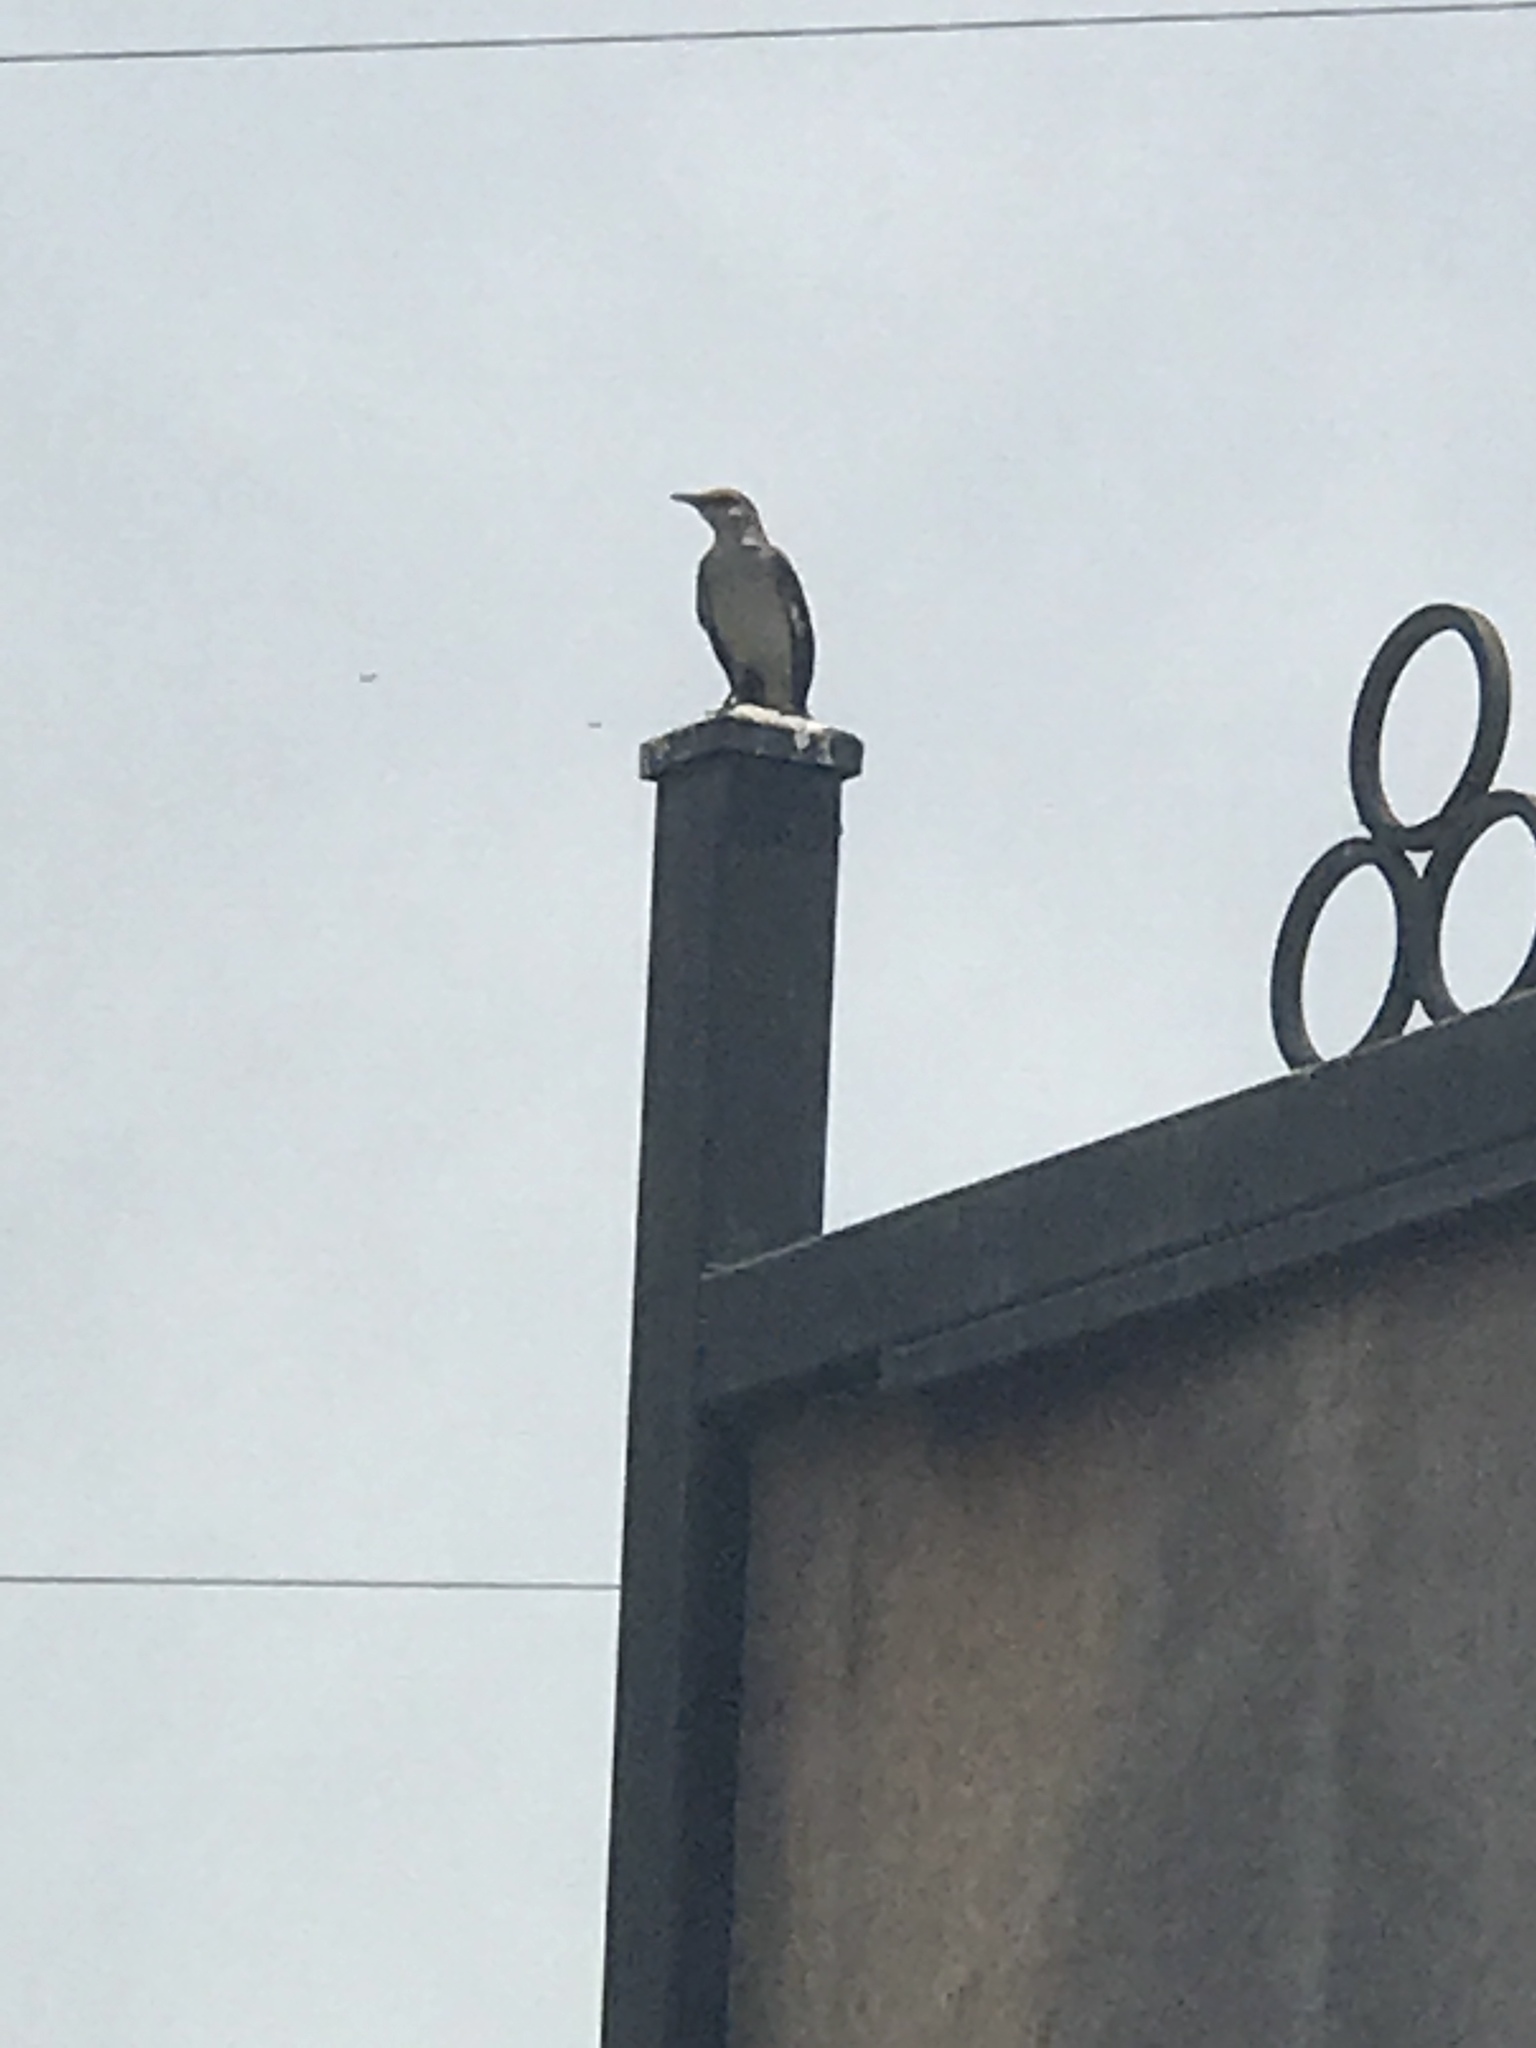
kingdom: Animalia
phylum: Chordata
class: Aves
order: Passeriformes
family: Mimidae
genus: Mimus
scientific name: Mimus polyglottos
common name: Northern mockingbird
